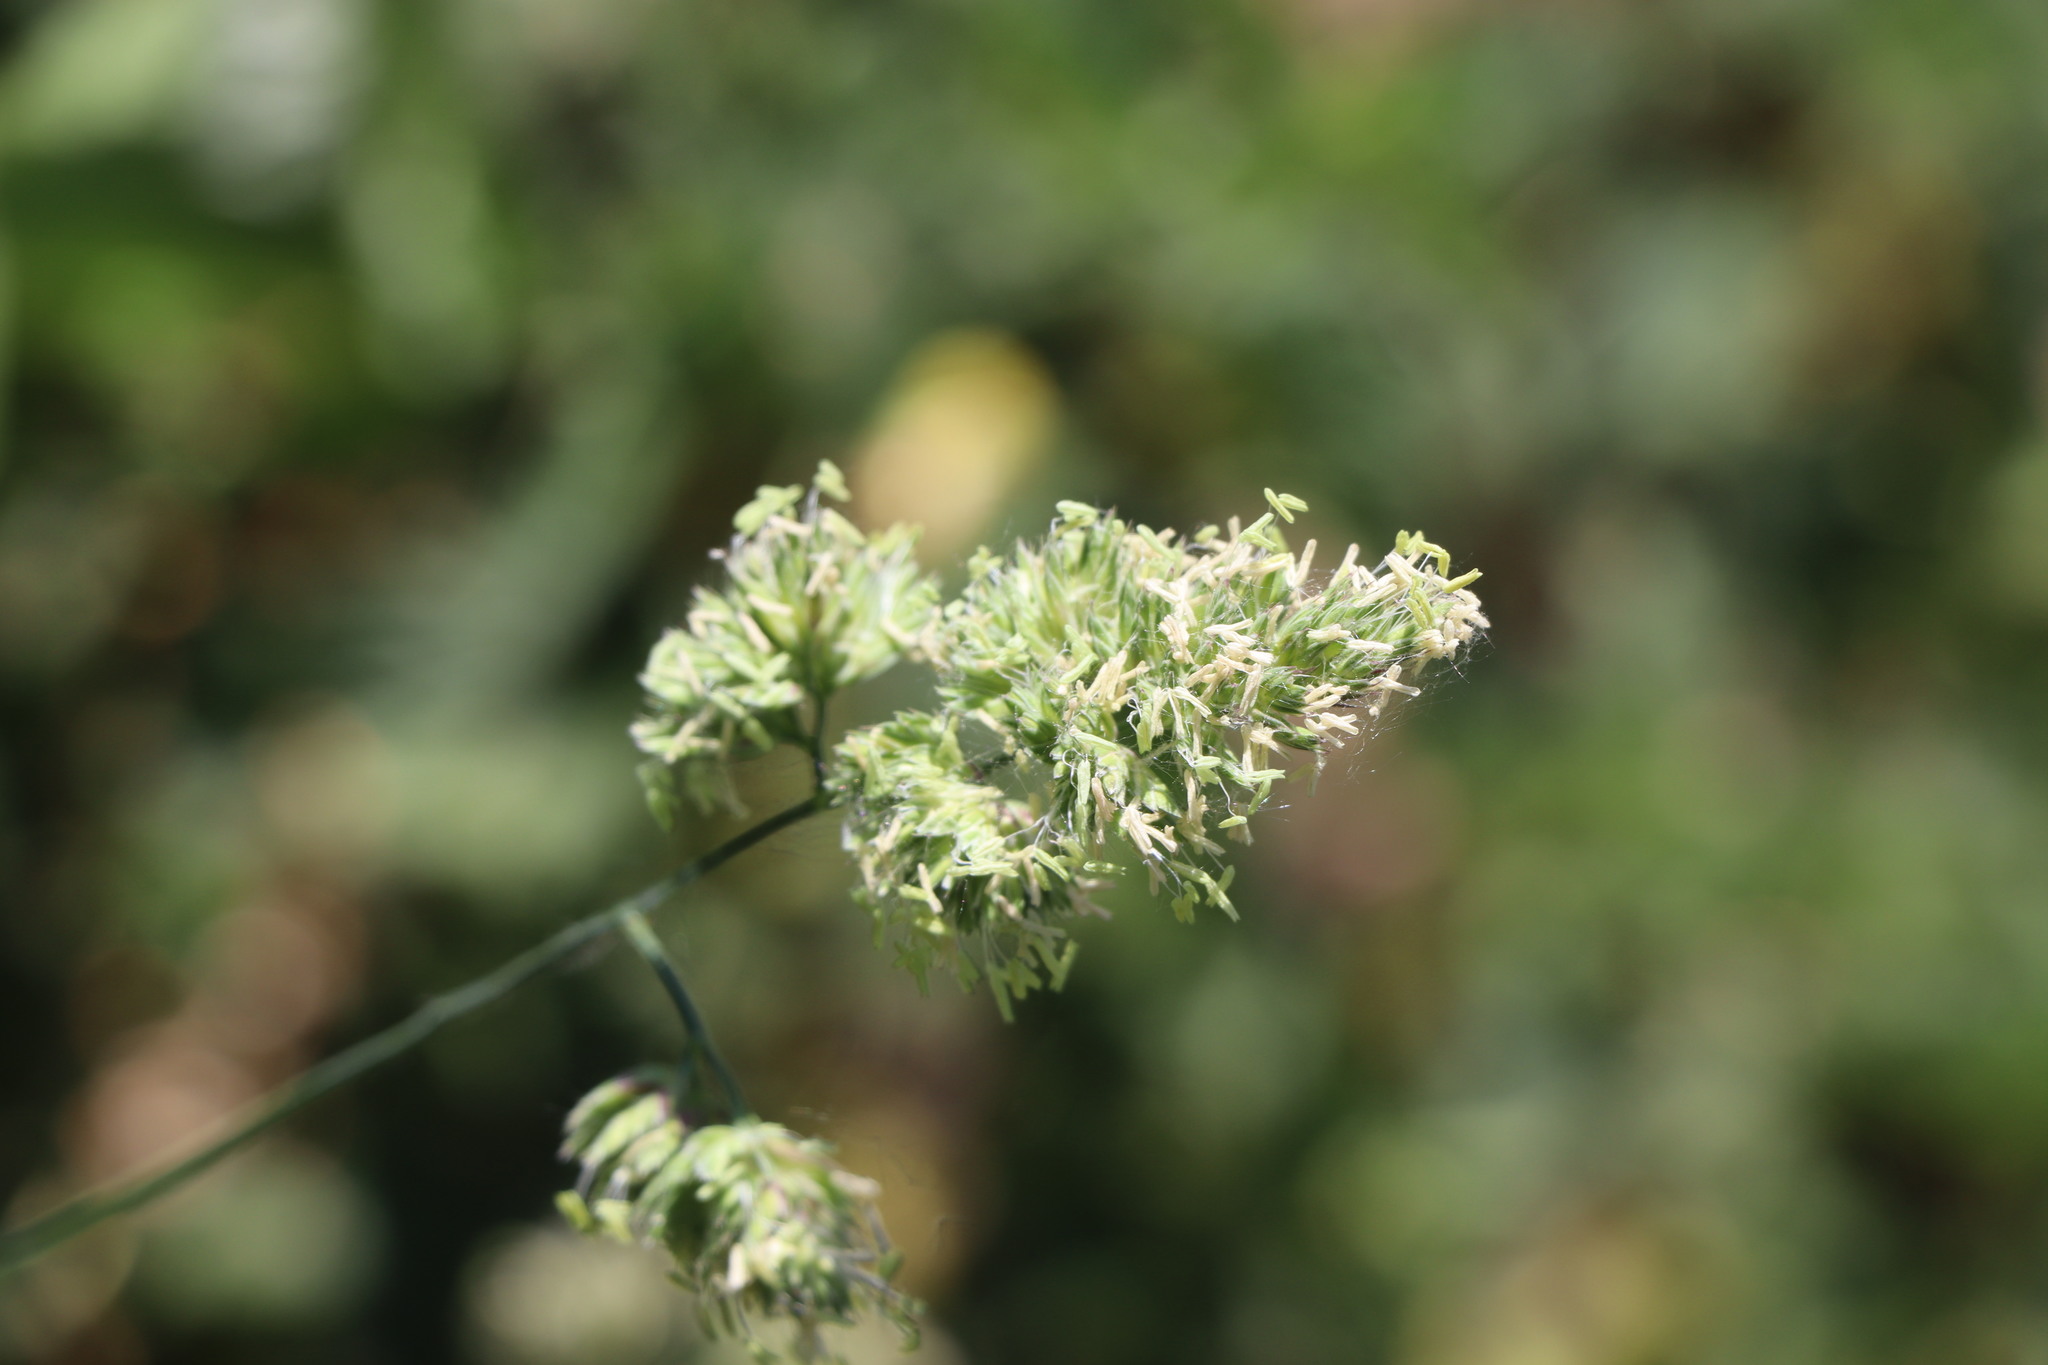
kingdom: Plantae
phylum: Tracheophyta
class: Liliopsida
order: Poales
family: Poaceae
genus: Dactylis
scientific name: Dactylis glomerata
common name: Orchardgrass
